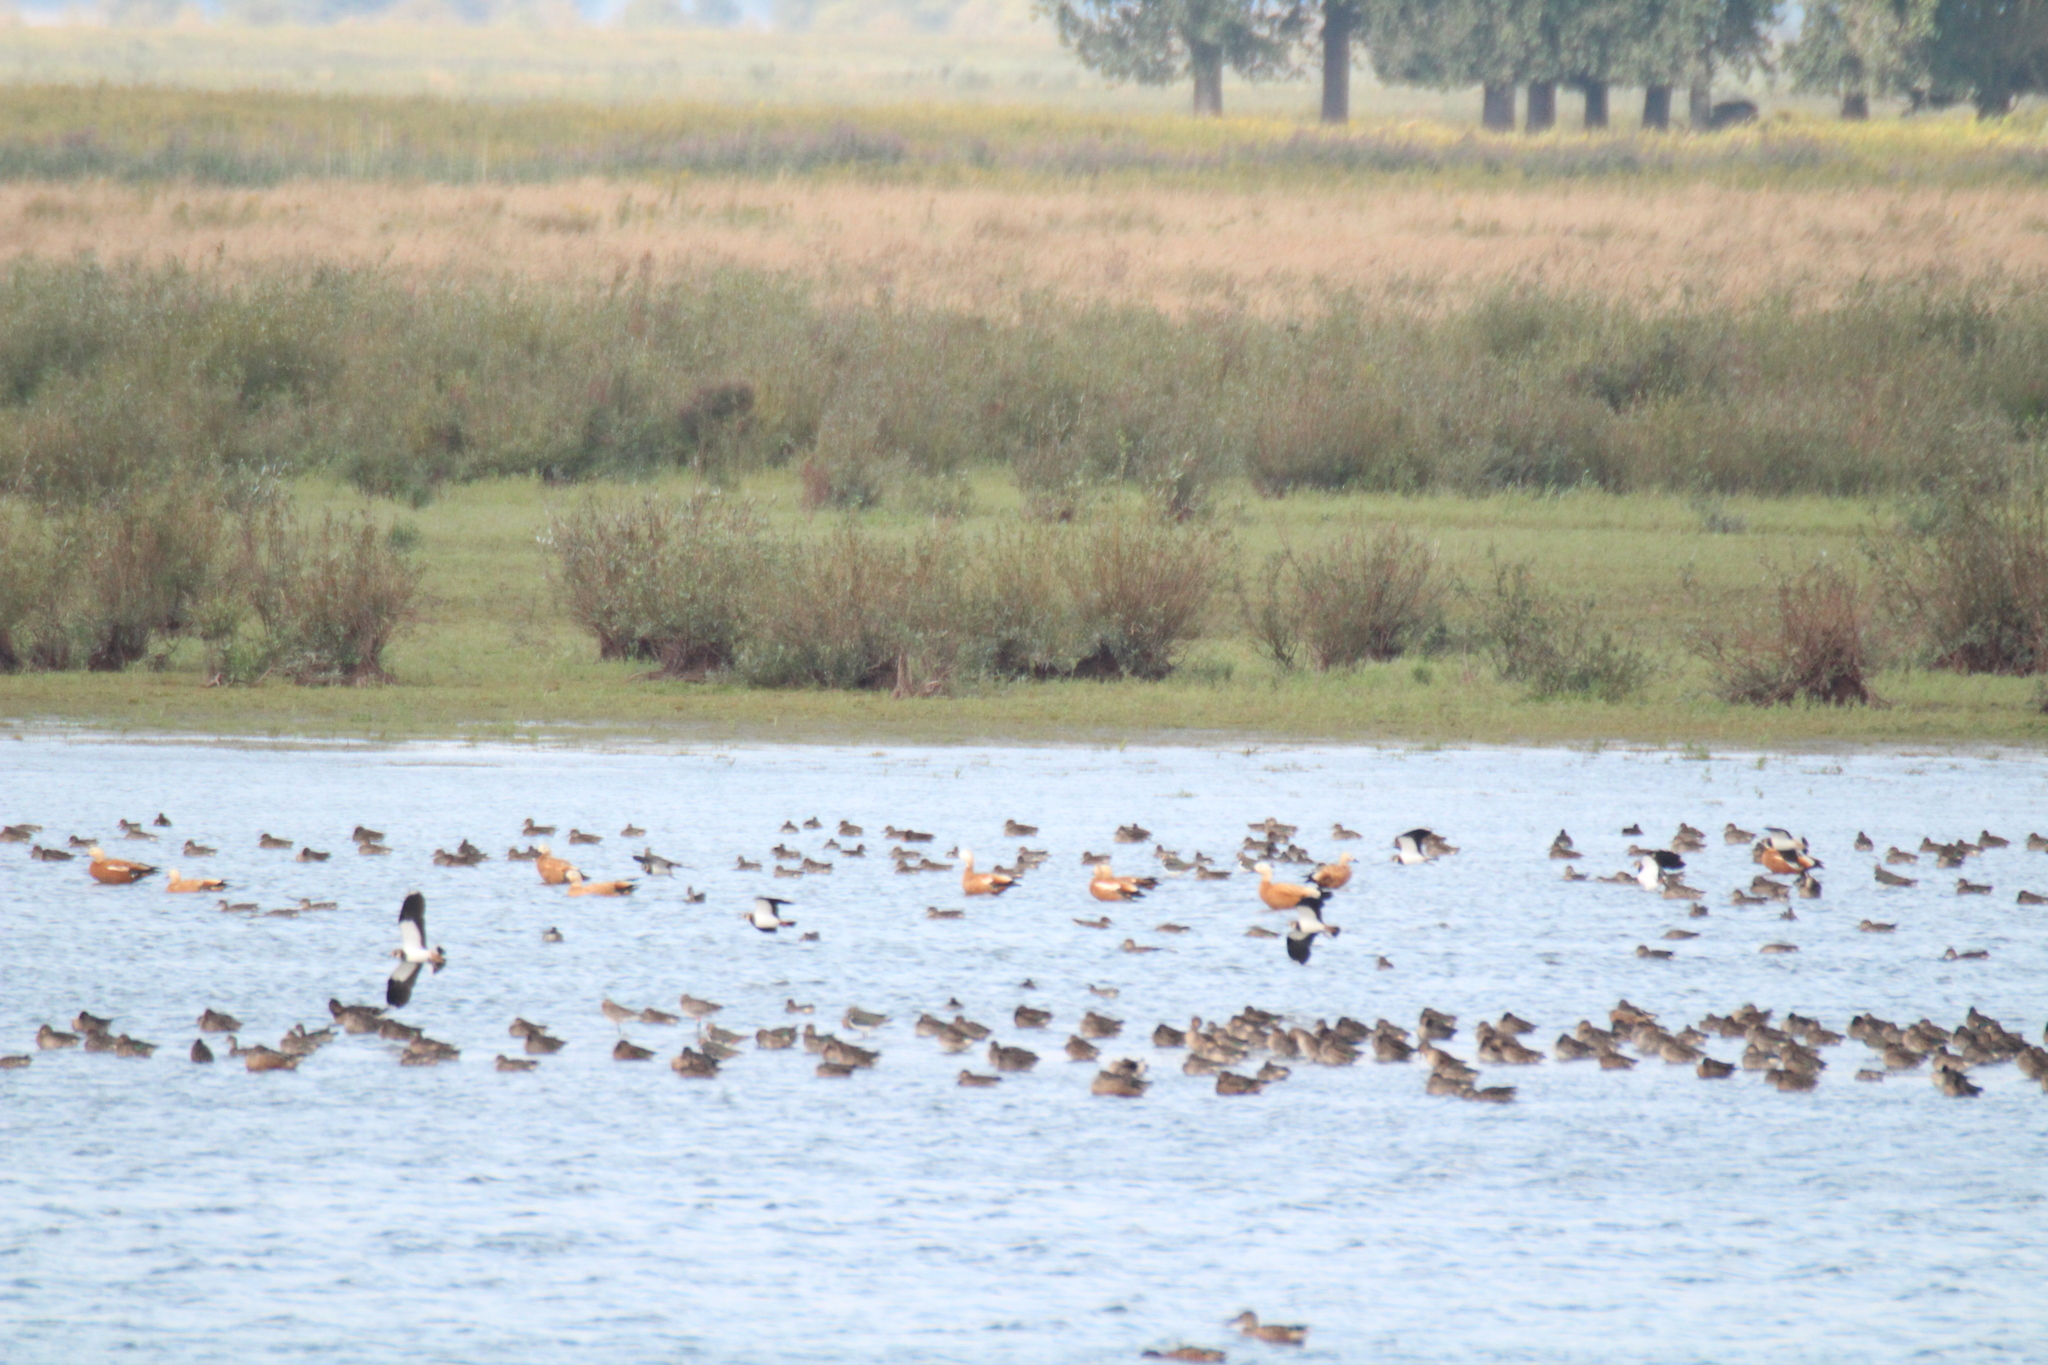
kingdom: Animalia
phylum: Chordata
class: Aves
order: Anseriformes
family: Anatidae
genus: Tadorna
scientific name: Tadorna ferruginea
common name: Ruddy shelduck
